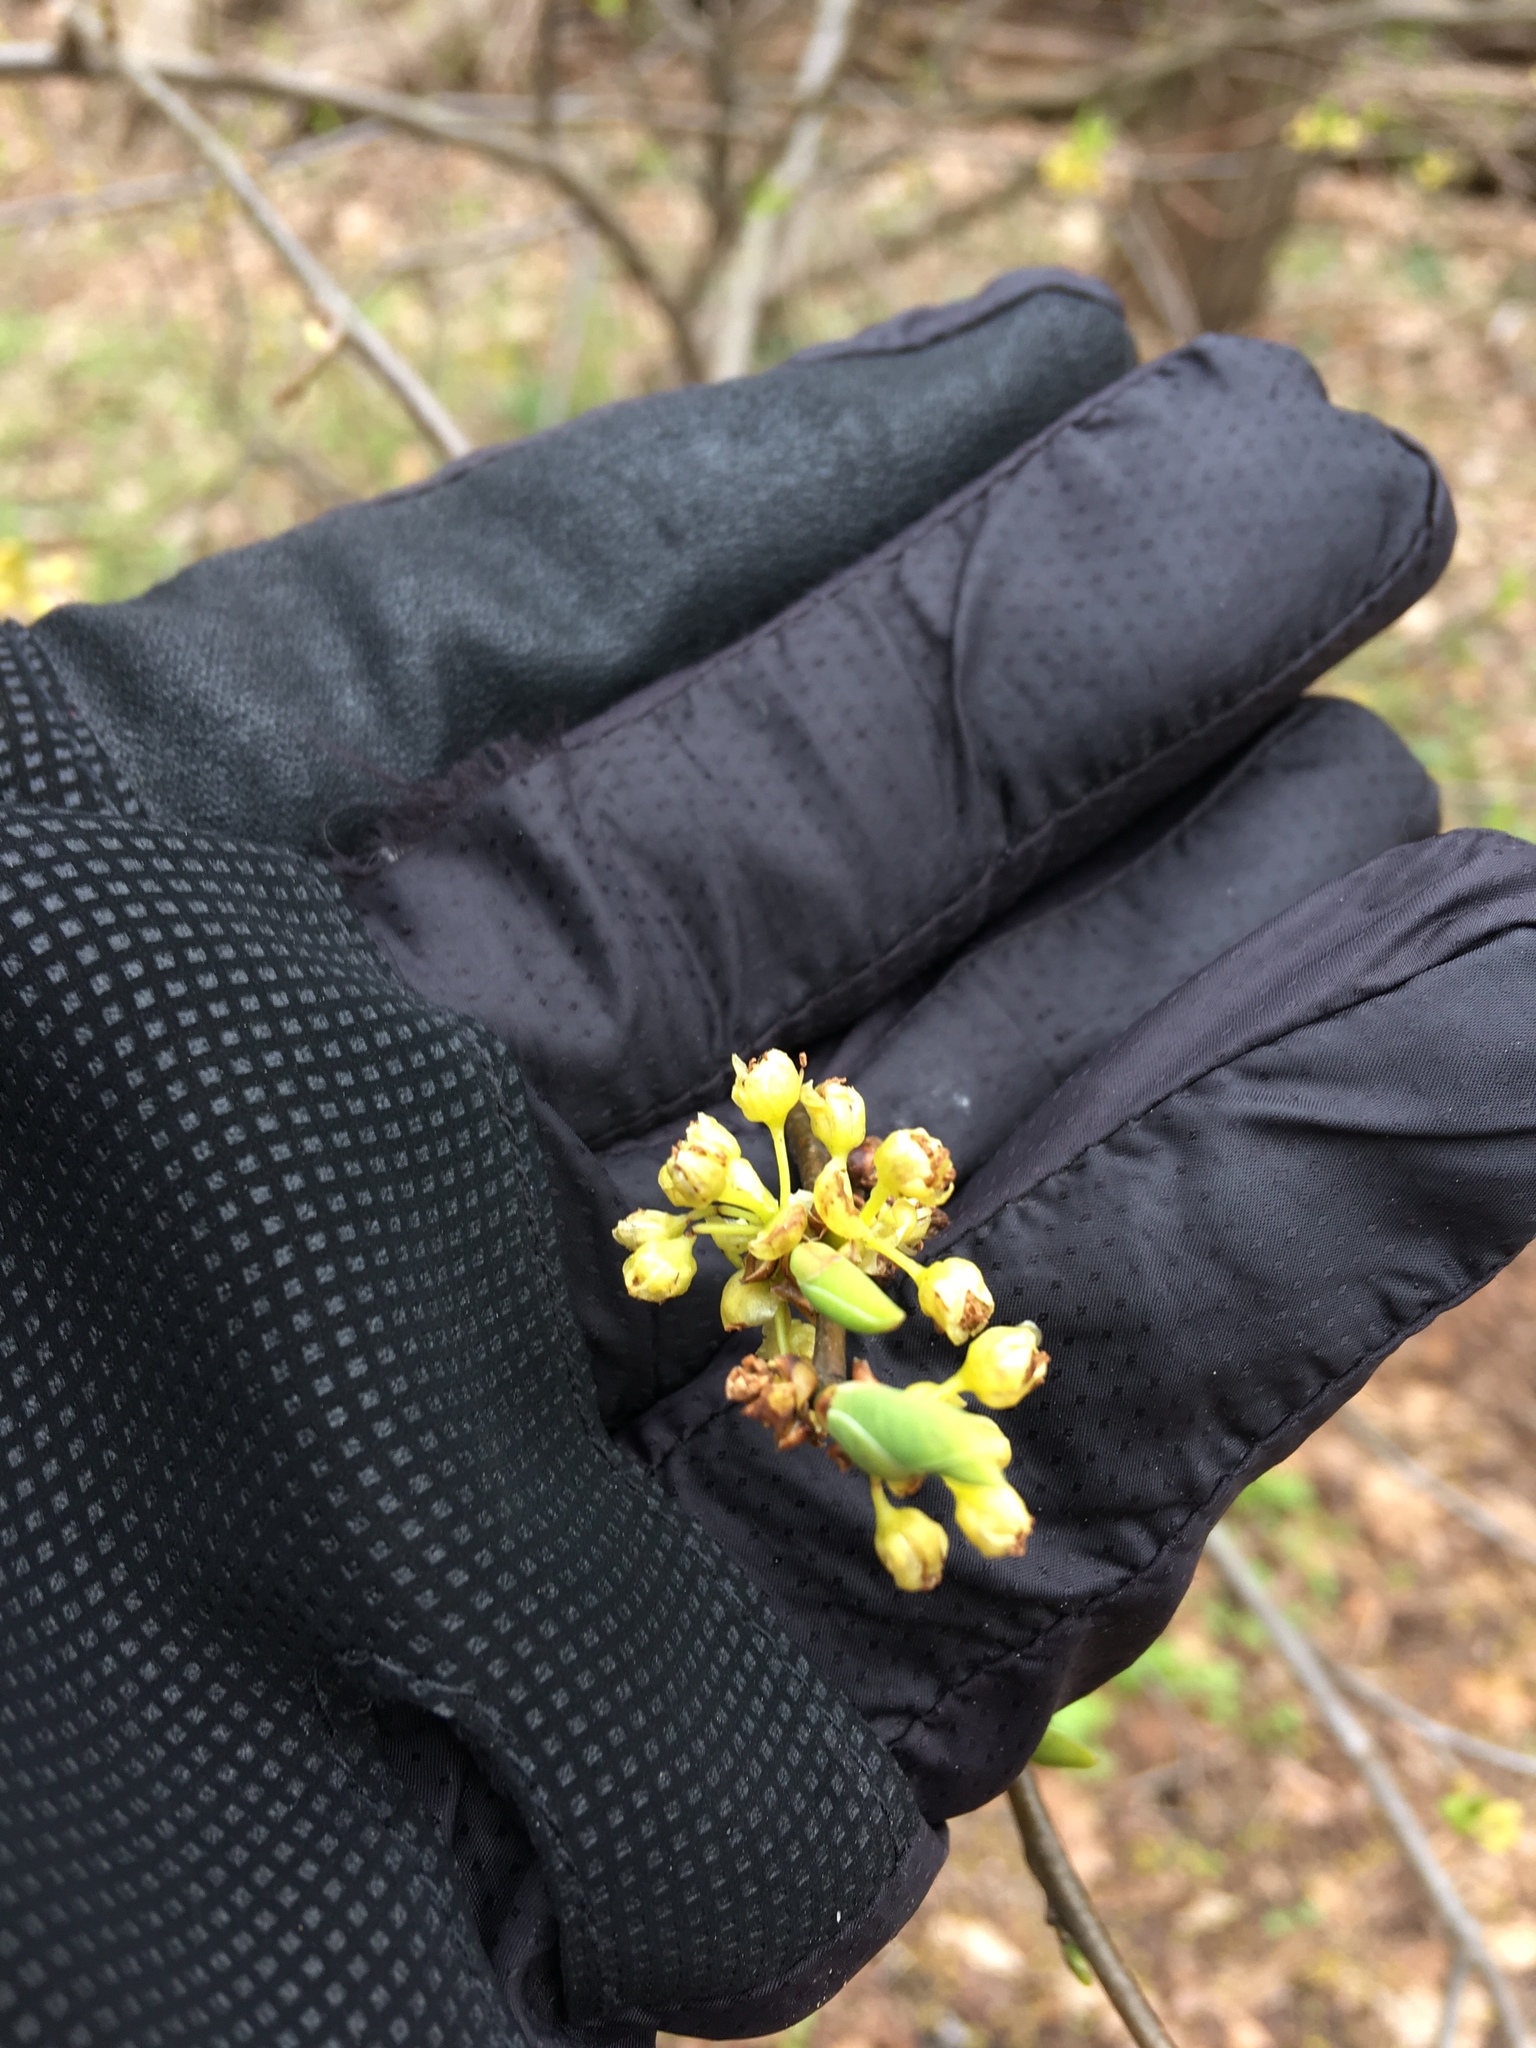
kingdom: Plantae
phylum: Tracheophyta
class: Magnoliopsida
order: Laurales
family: Lauraceae
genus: Lindera
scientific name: Lindera benzoin
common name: Spicebush
